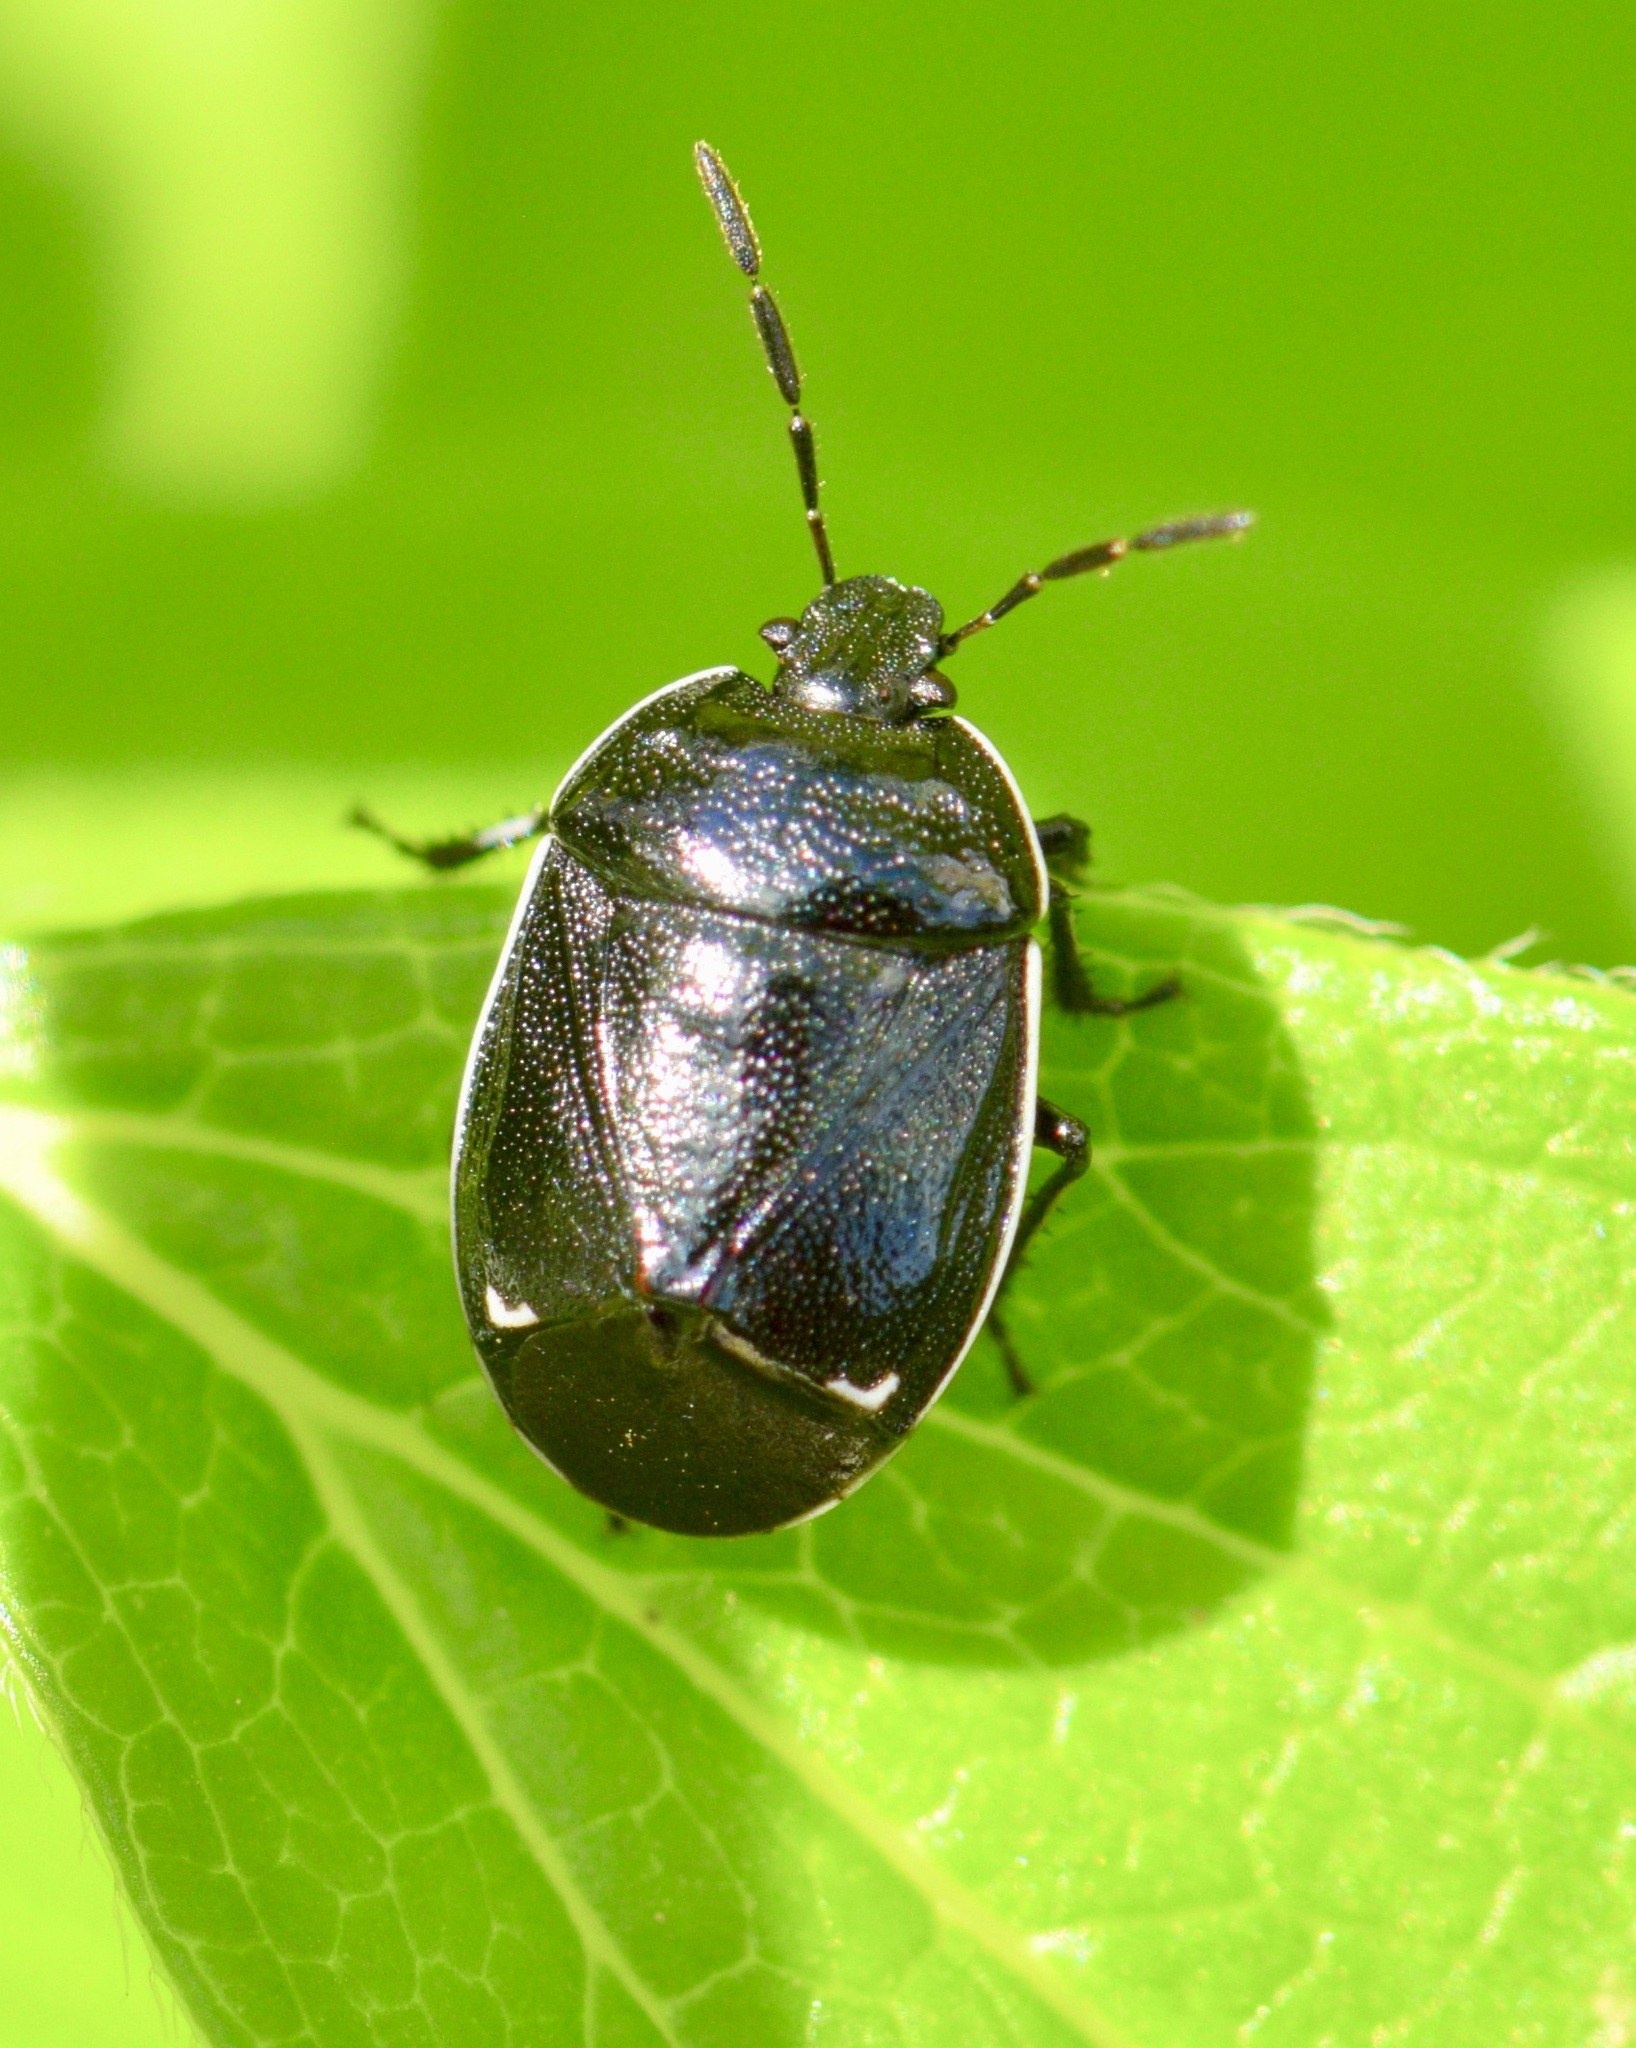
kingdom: Animalia
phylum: Arthropoda
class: Insecta
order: Hemiptera
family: Cydnidae
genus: Sehirus
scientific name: Sehirus cinctus
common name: White-margined burrower bug
